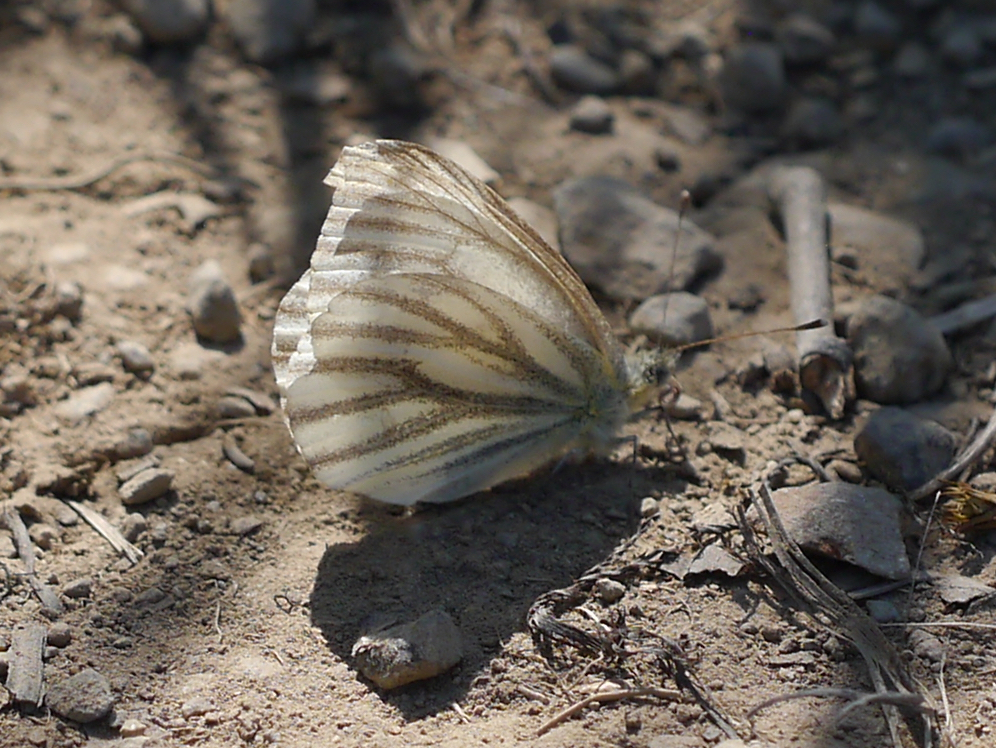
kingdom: Animalia
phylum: Arthropoda
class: Insecta
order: Lepidoptera
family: Pieridae
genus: Pieris
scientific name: Pieris marginalis
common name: Margined white
